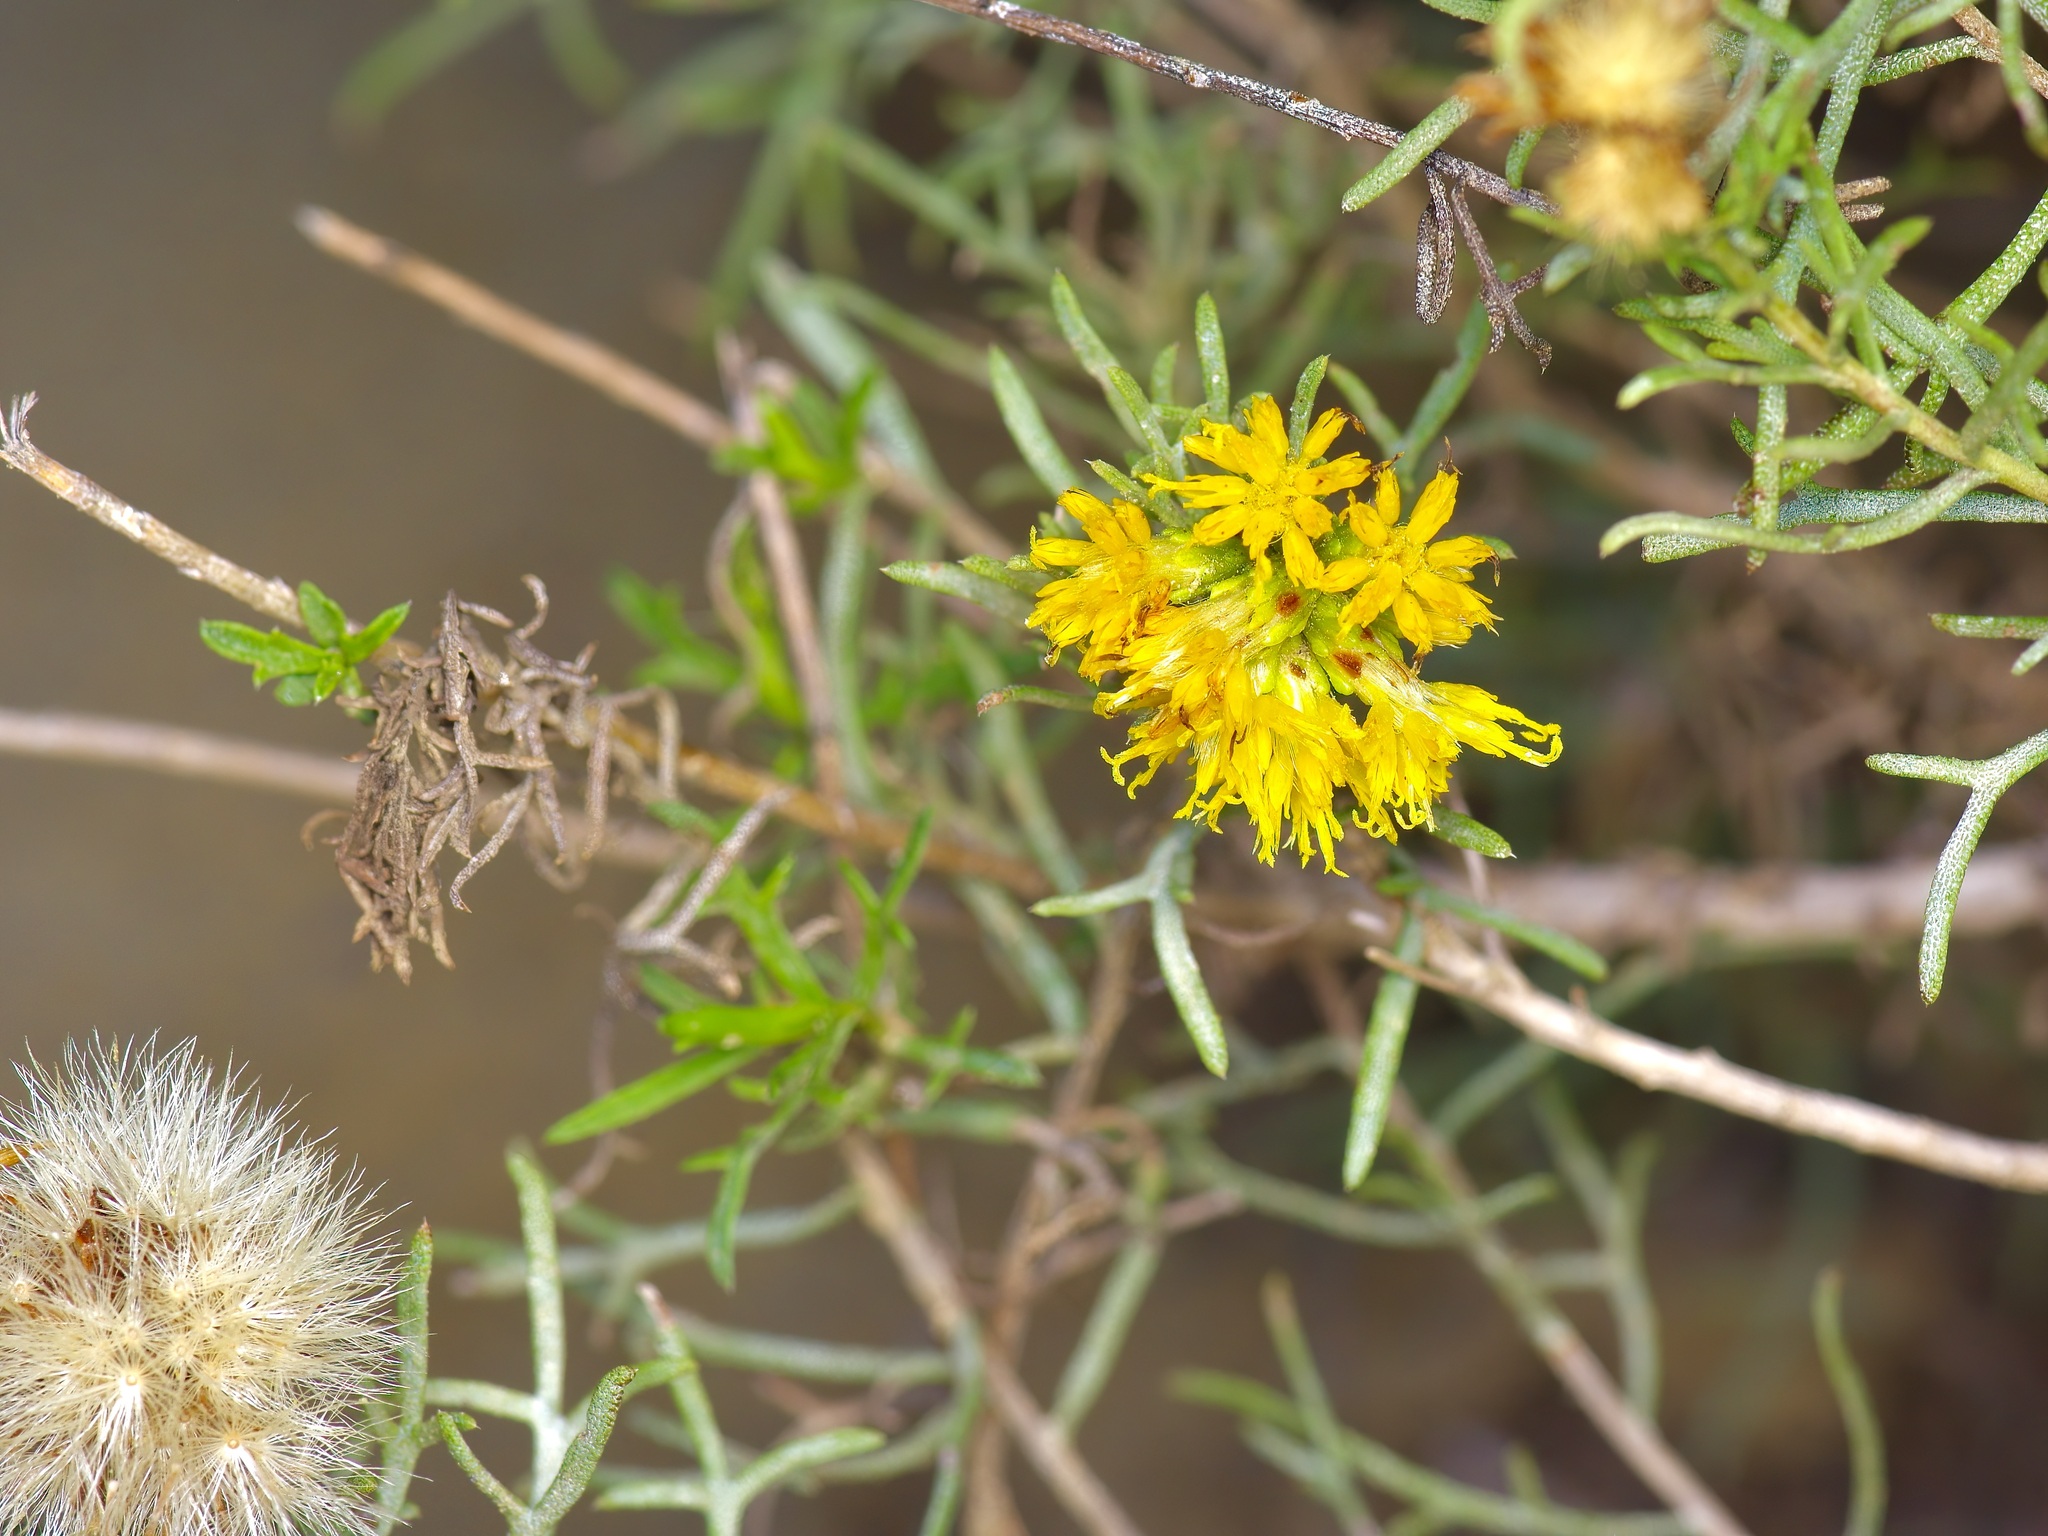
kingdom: Plantae
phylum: Tracheophyta
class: Magnoliopsida
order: Asterales
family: Asteraceae
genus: Isocoma
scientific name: Isocoma coronopifolia
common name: Common jimmyweed
